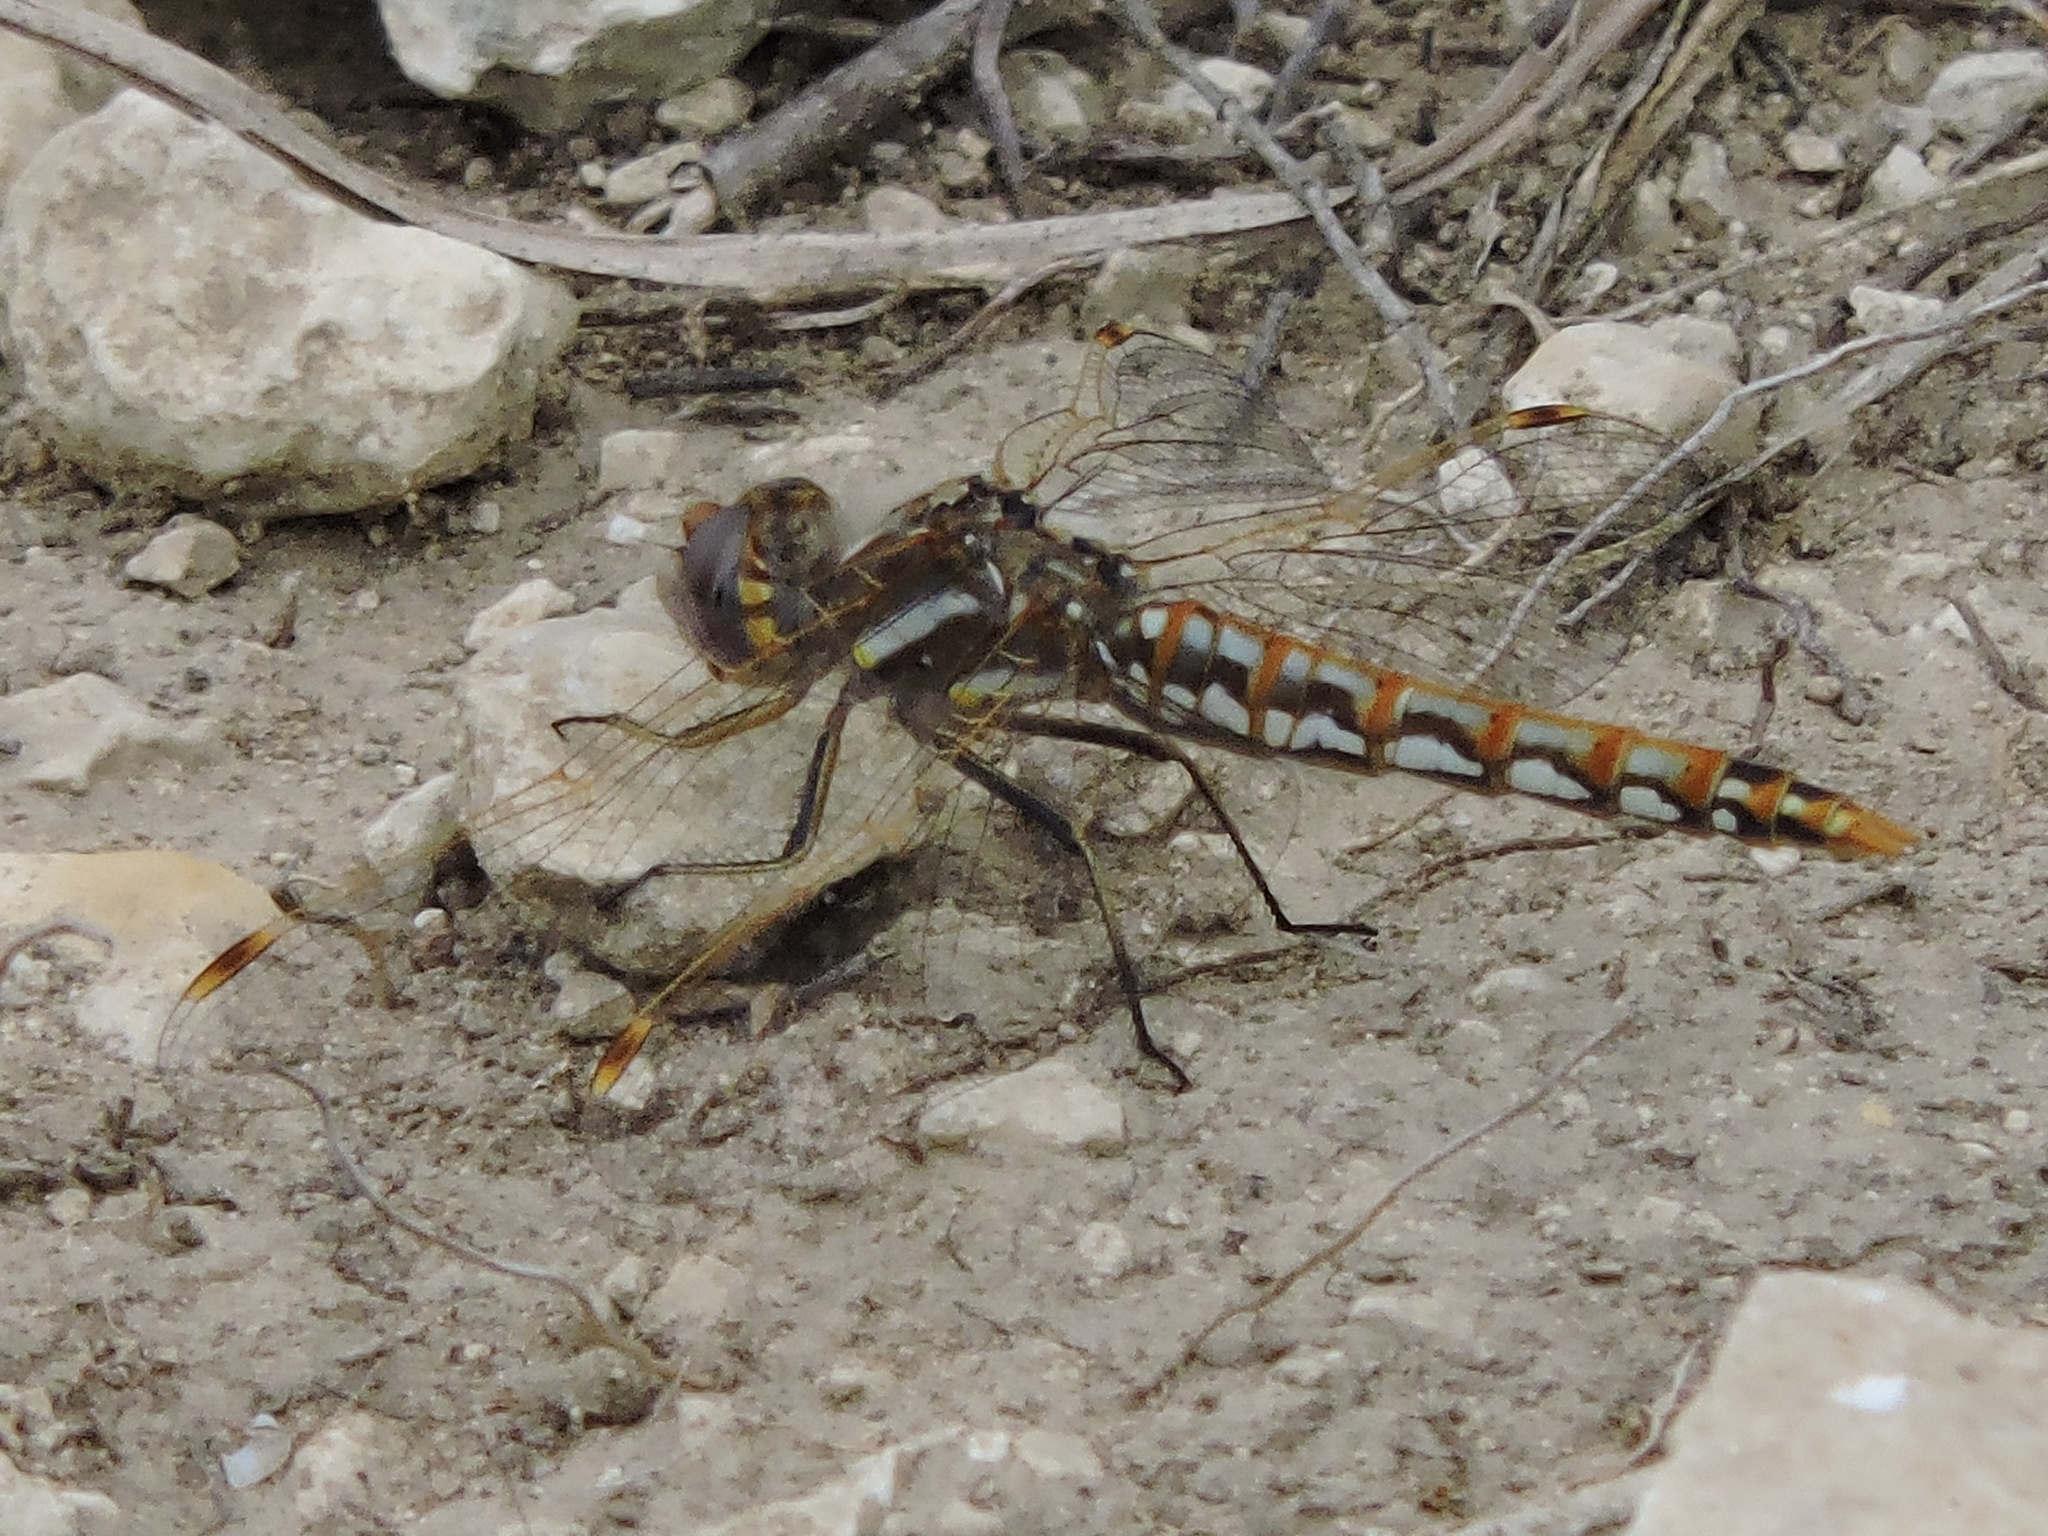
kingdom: Animalia
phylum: Arthropoda
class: Insecta
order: Odonata
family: Libellulidae
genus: Sympetrum
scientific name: Sympetrum corruptum
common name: Variegated meadowhawk
